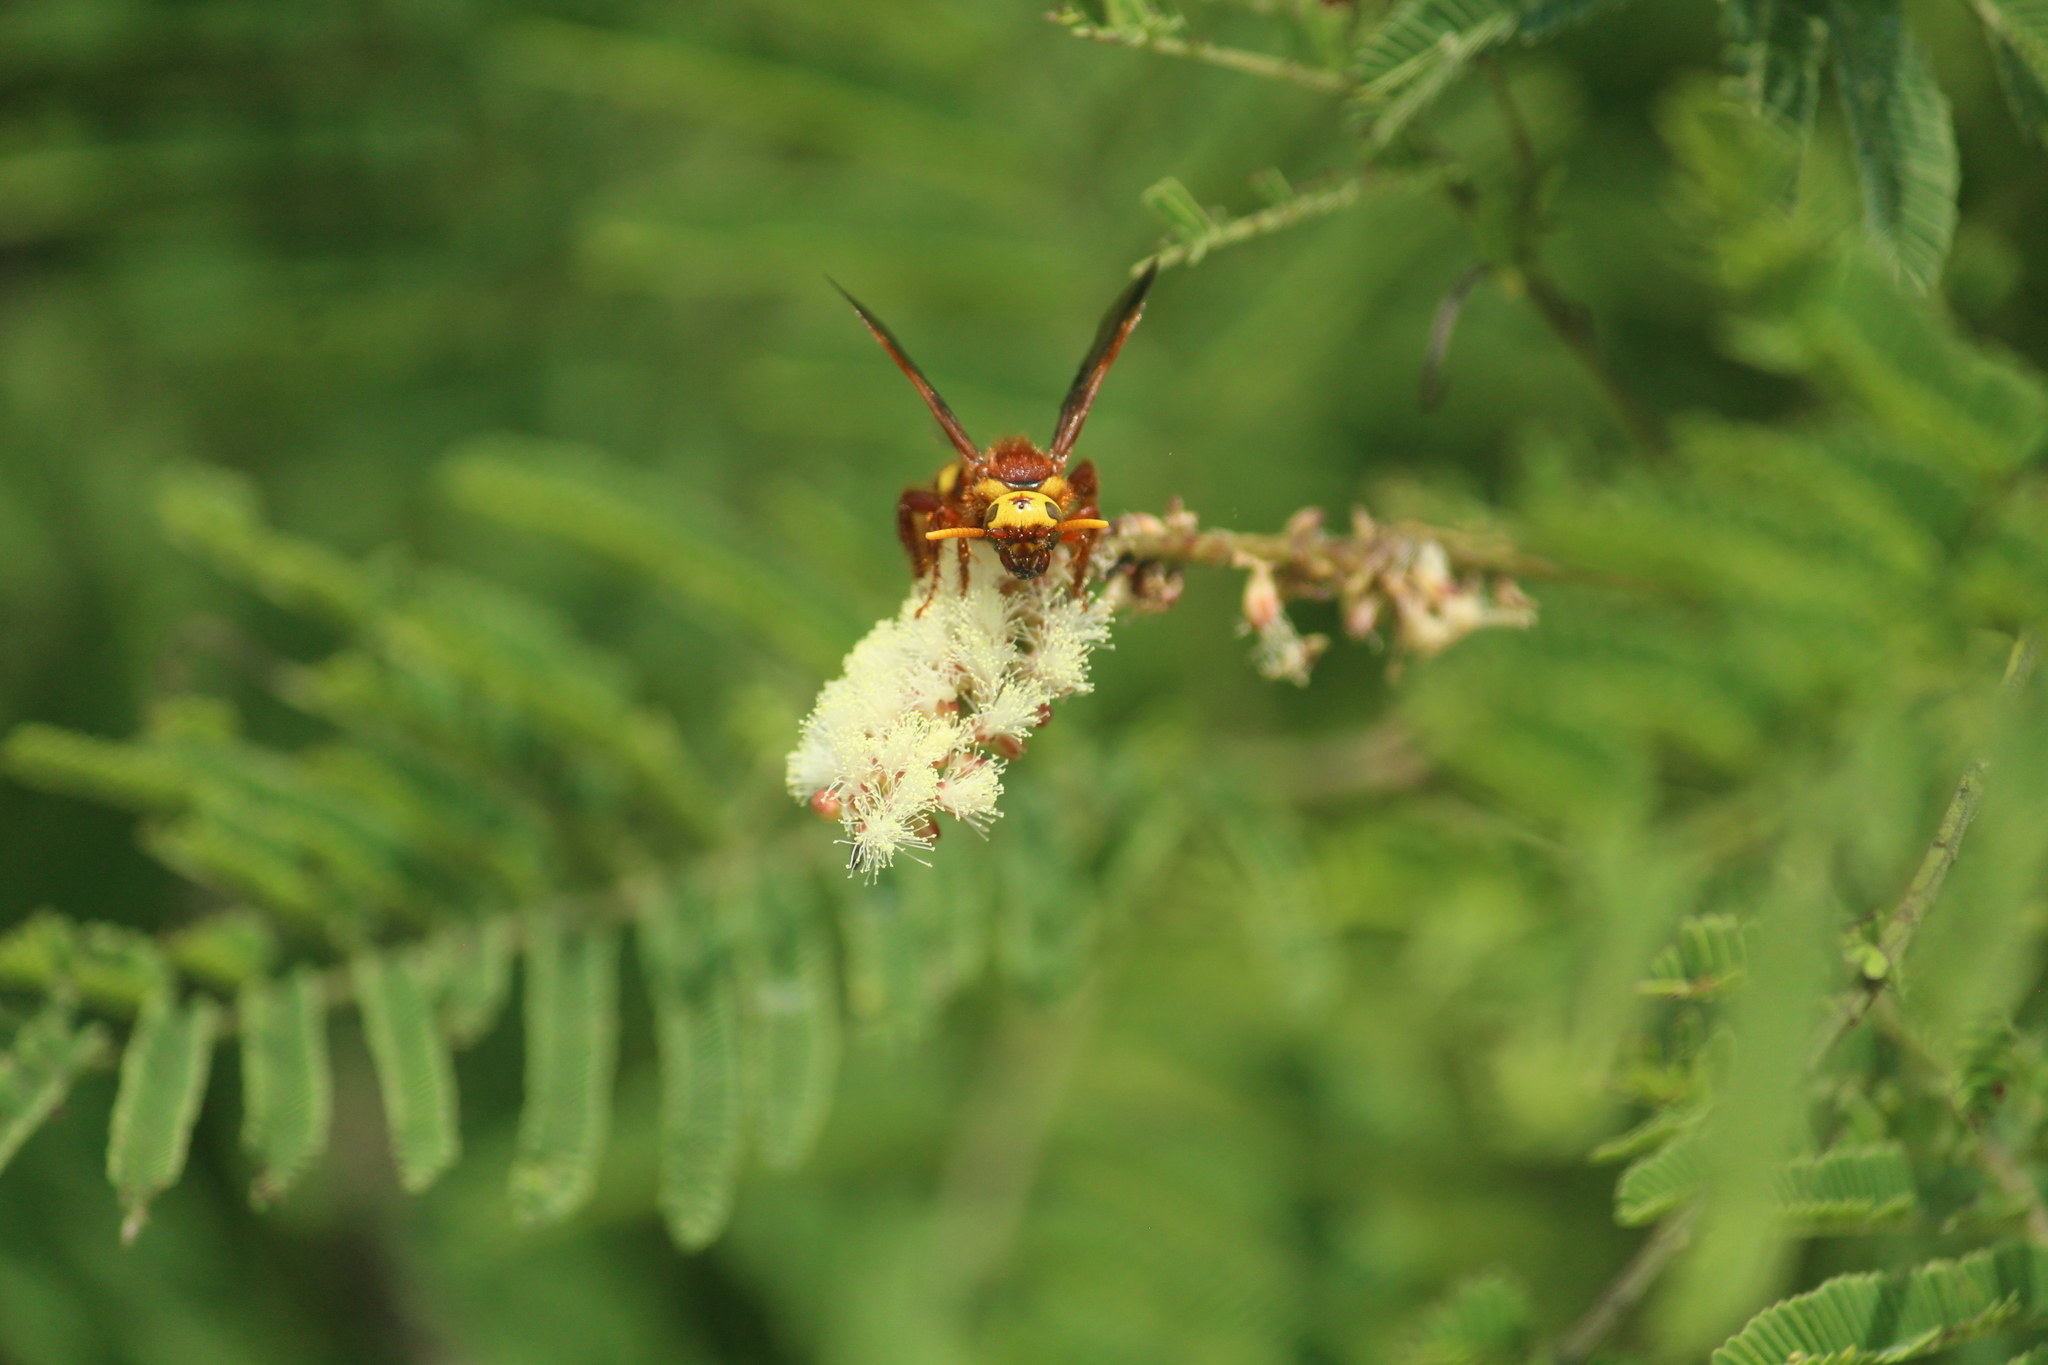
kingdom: Animalia
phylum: Arthropoda
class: Insecta
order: Hymenoptera
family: Scoliidae
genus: Carinoscolia
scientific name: Carinoscolia Scolia picteti
